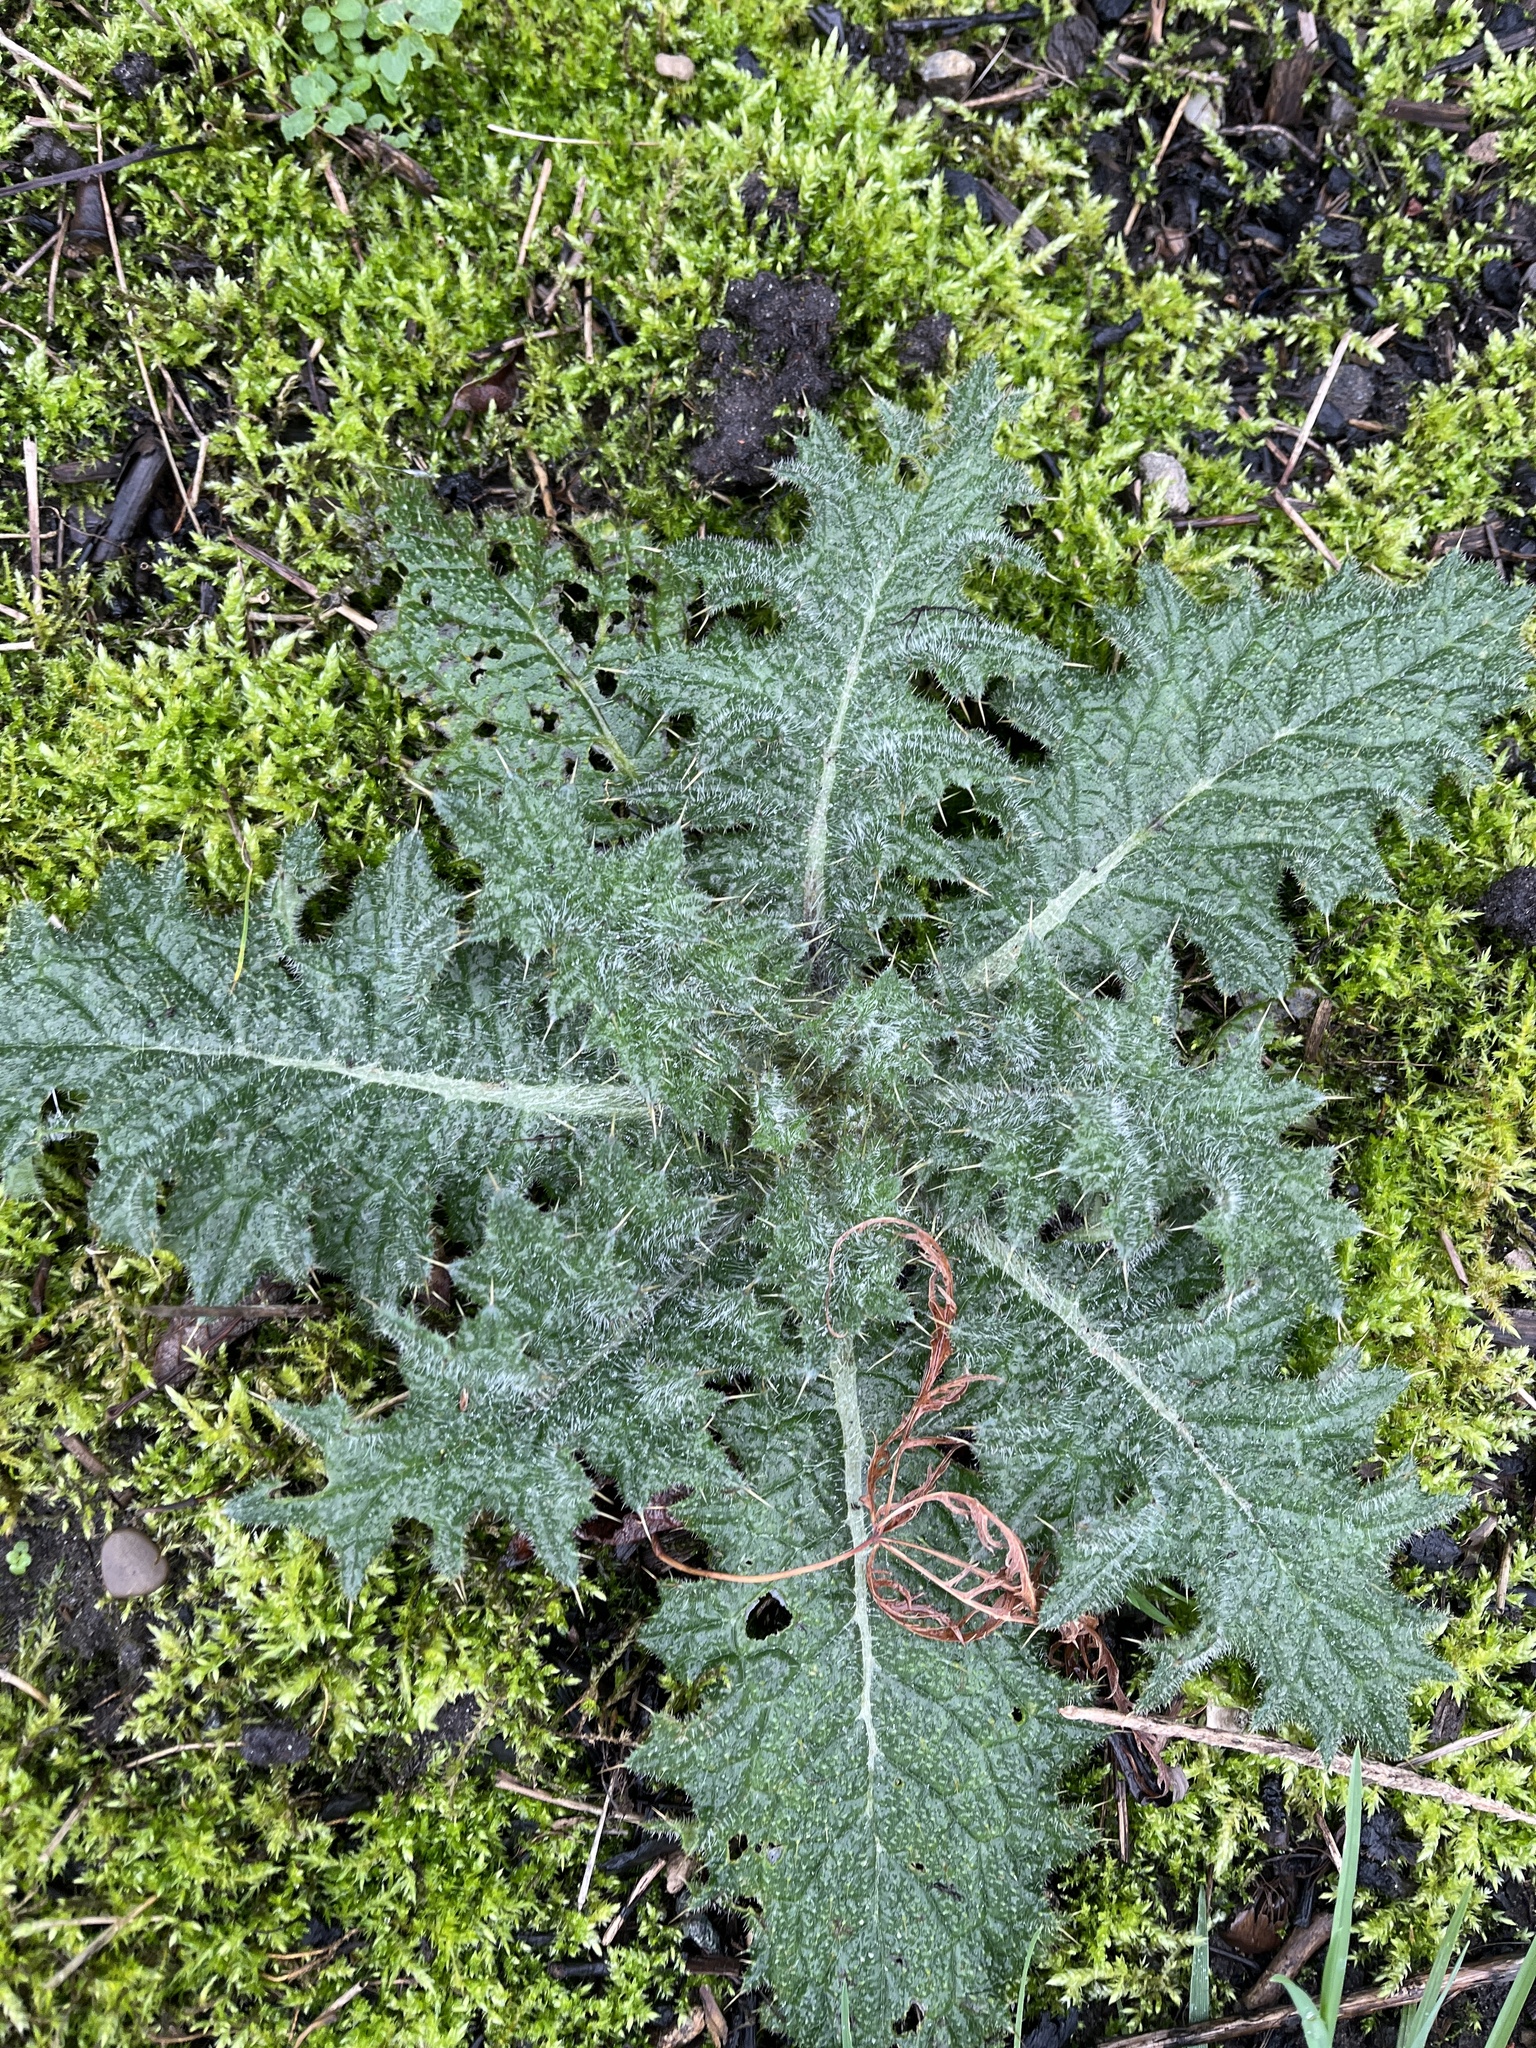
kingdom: Plantae
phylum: Tracheophyta
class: Magnoliopsida
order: Asterales
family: Asteraceae
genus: Cirsium
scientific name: Cirsium vulgare
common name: Bull thistle
